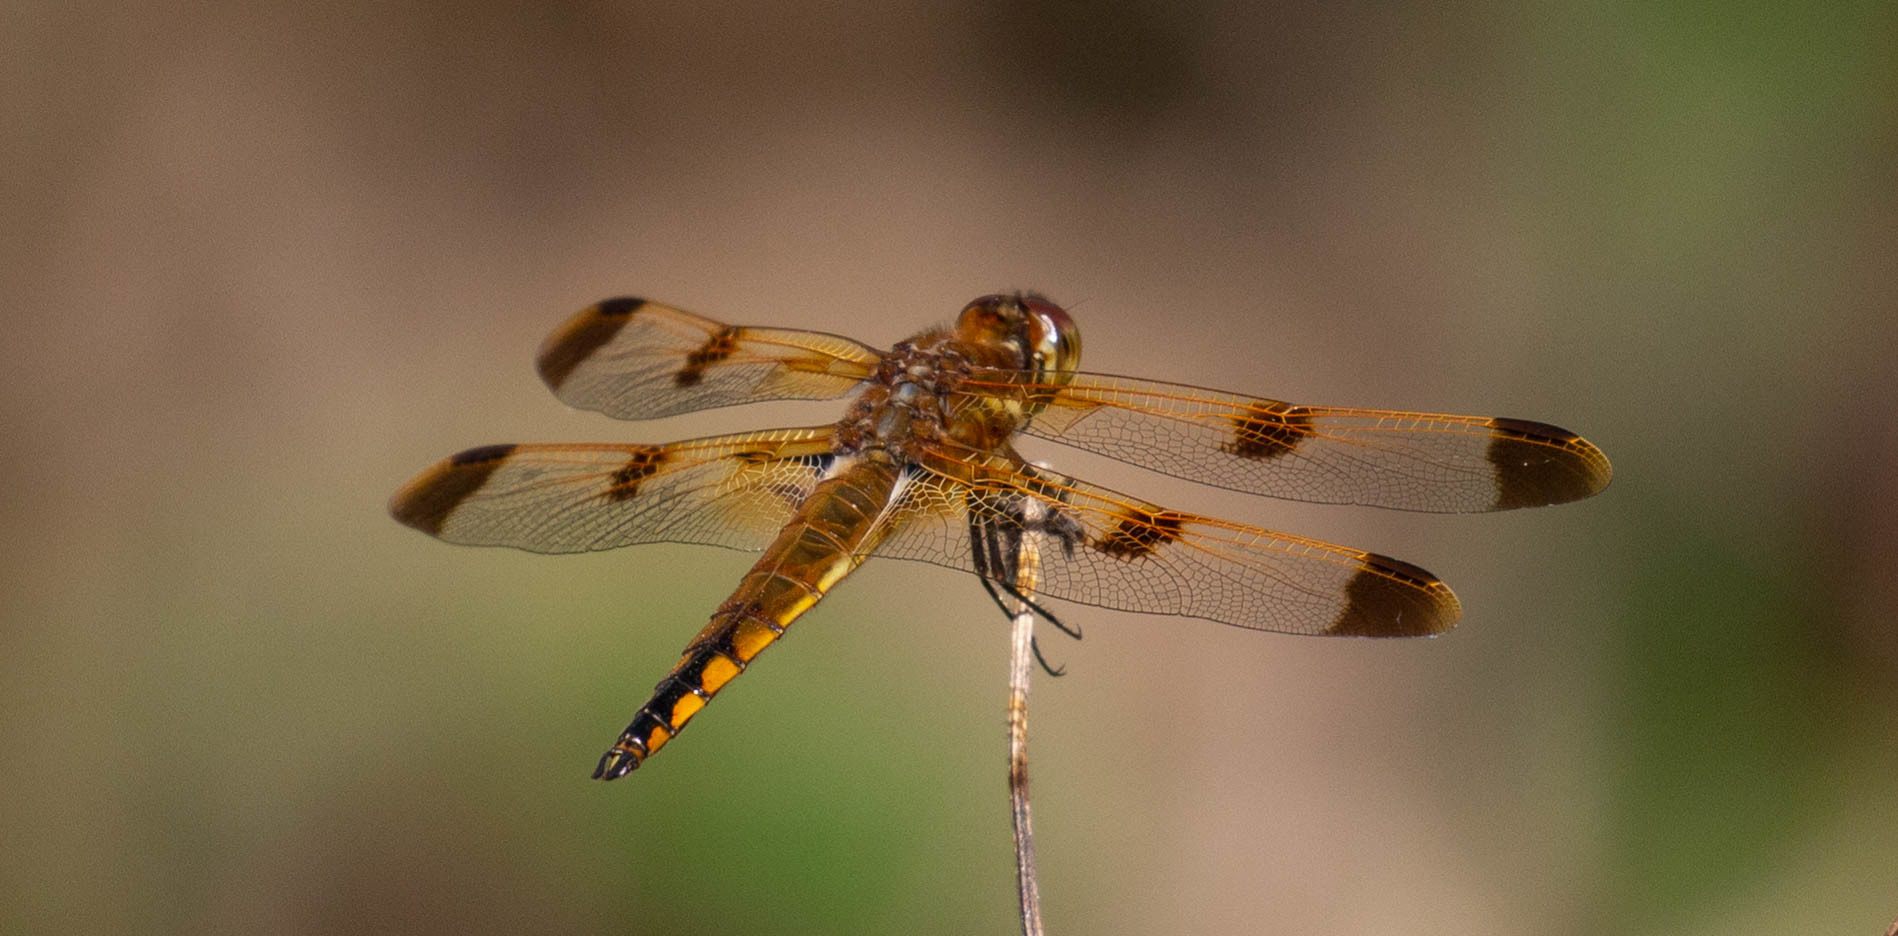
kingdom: Animalia
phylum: Arthropoda
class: Insecta
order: Odonata
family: Libellulidae
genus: Libellula
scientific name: Libellula semifasciata
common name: Painted skimmer
